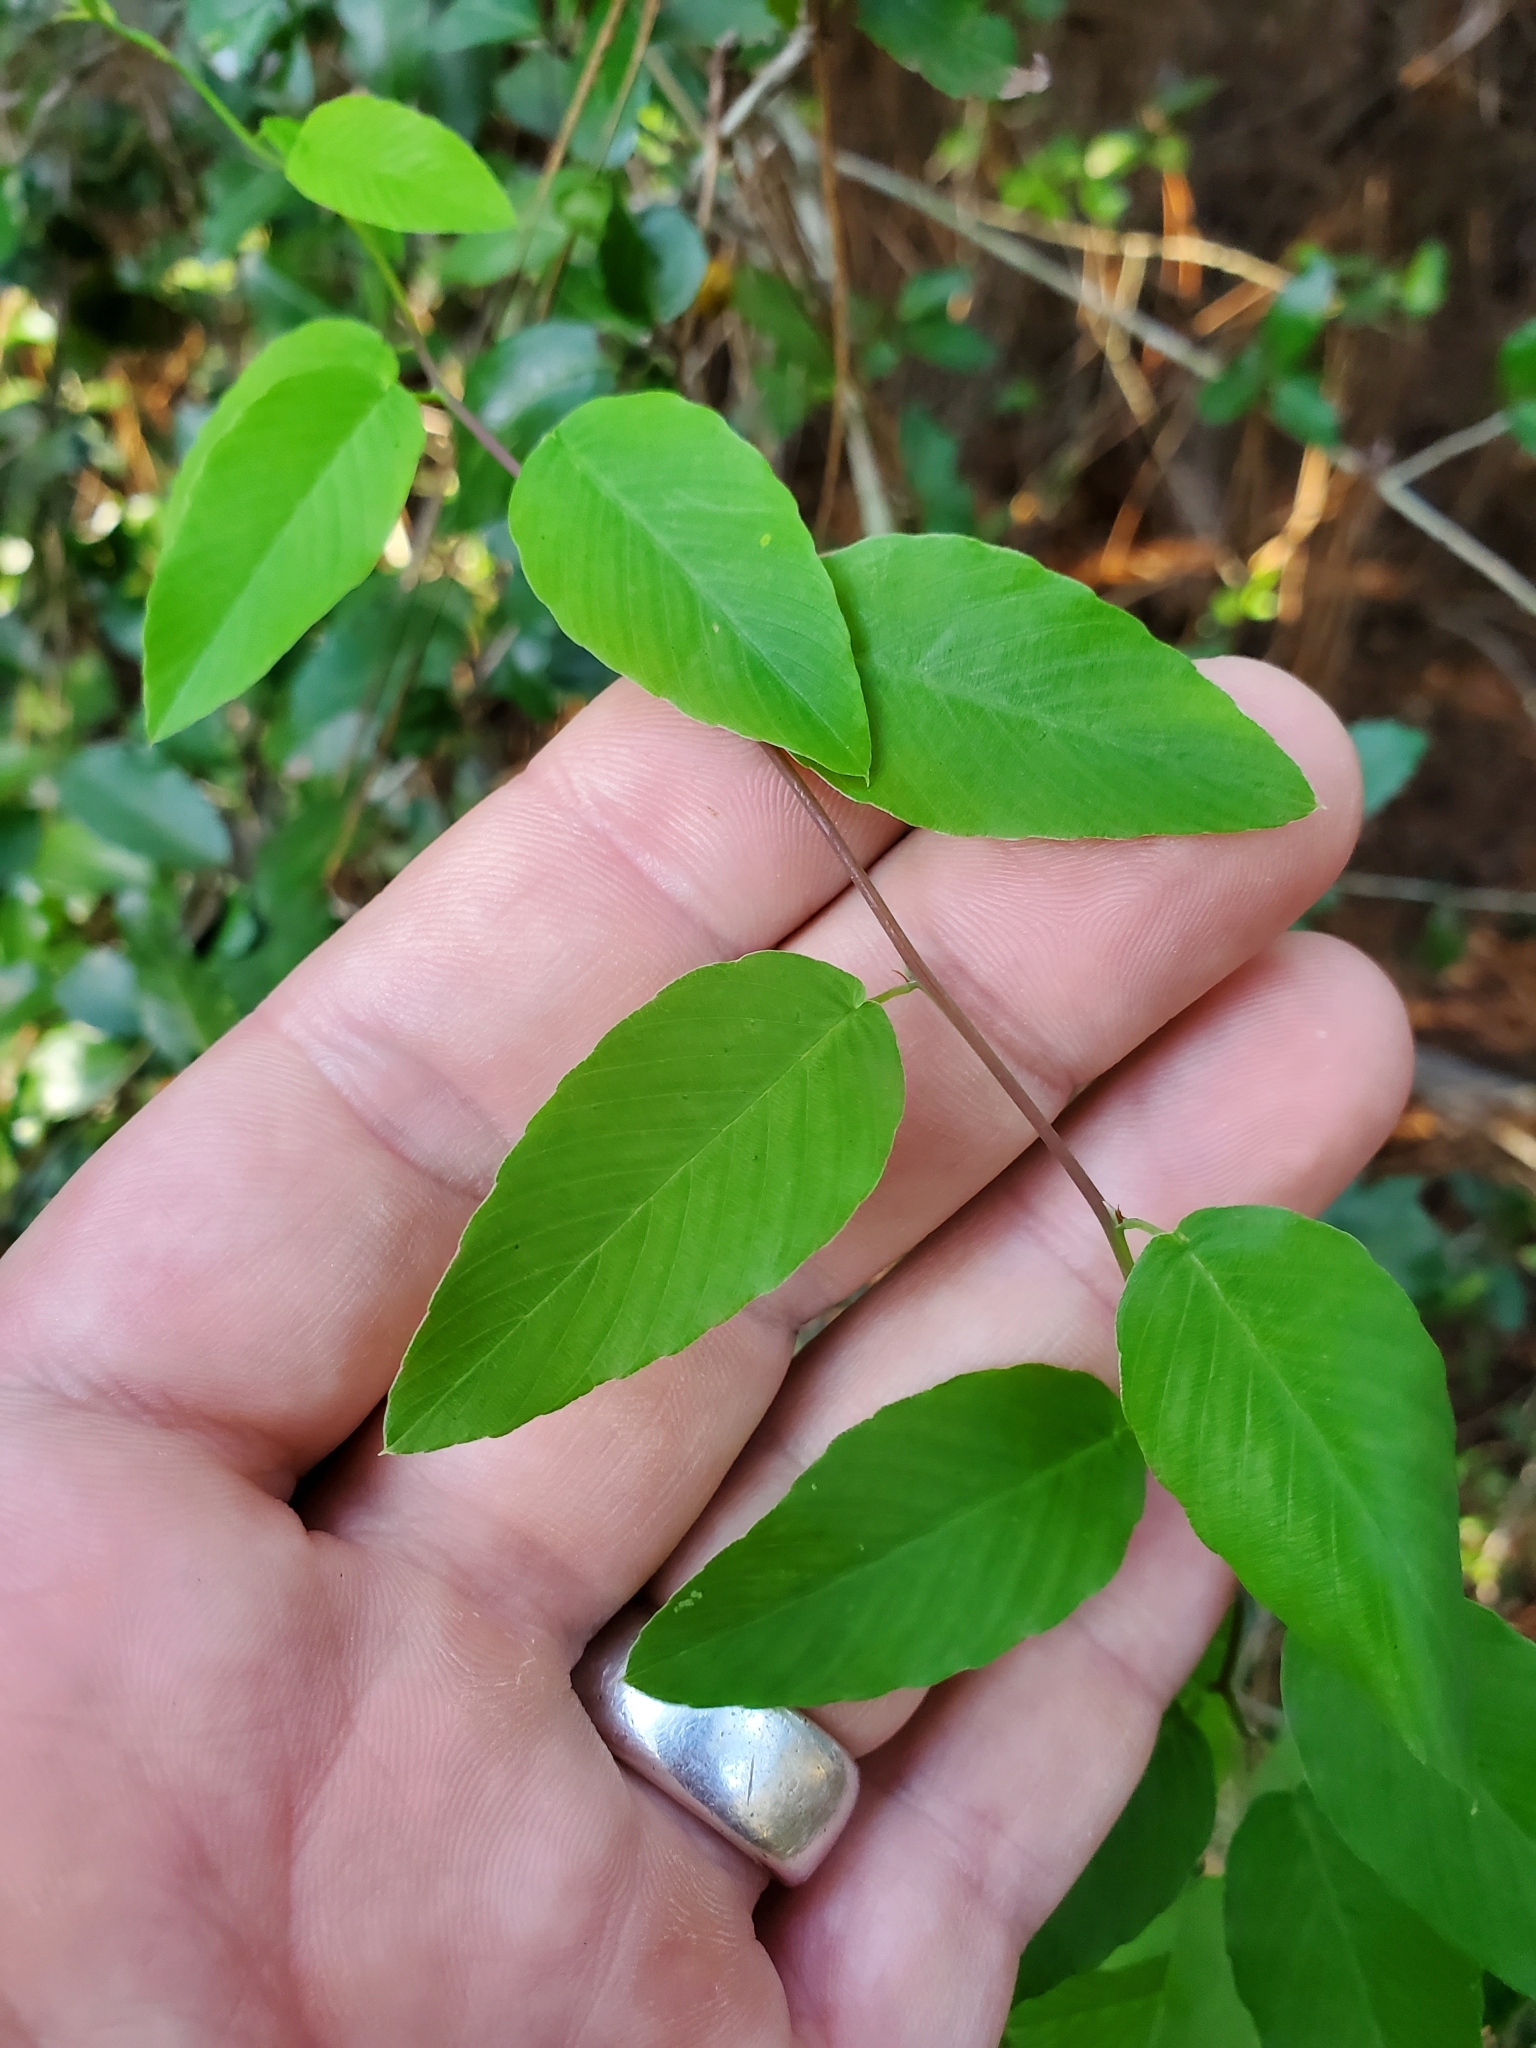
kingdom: Plantae
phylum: Tracheophyta
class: Magnoliopsida
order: Rosales
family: Rhamnaceae
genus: Berchemia
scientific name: Berchemia scandens
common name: Supplejack
